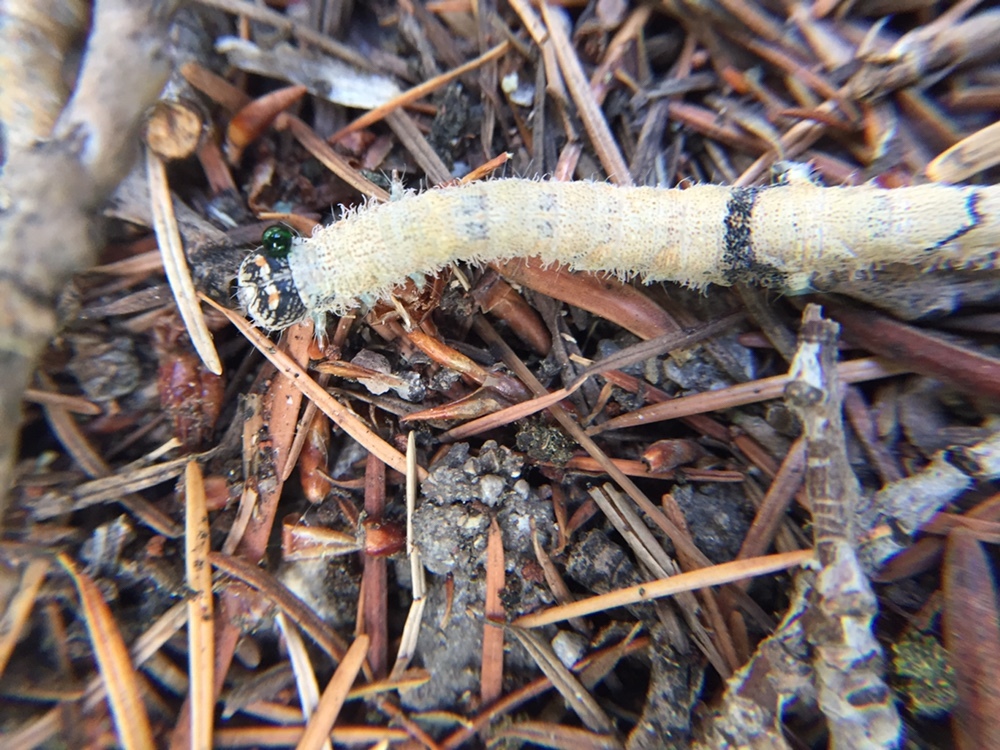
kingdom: Animalia
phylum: Arthropoda
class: Insecta
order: Lepidoptera
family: Erebidae
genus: Catocala
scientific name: Catocala relicta
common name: White underwing
